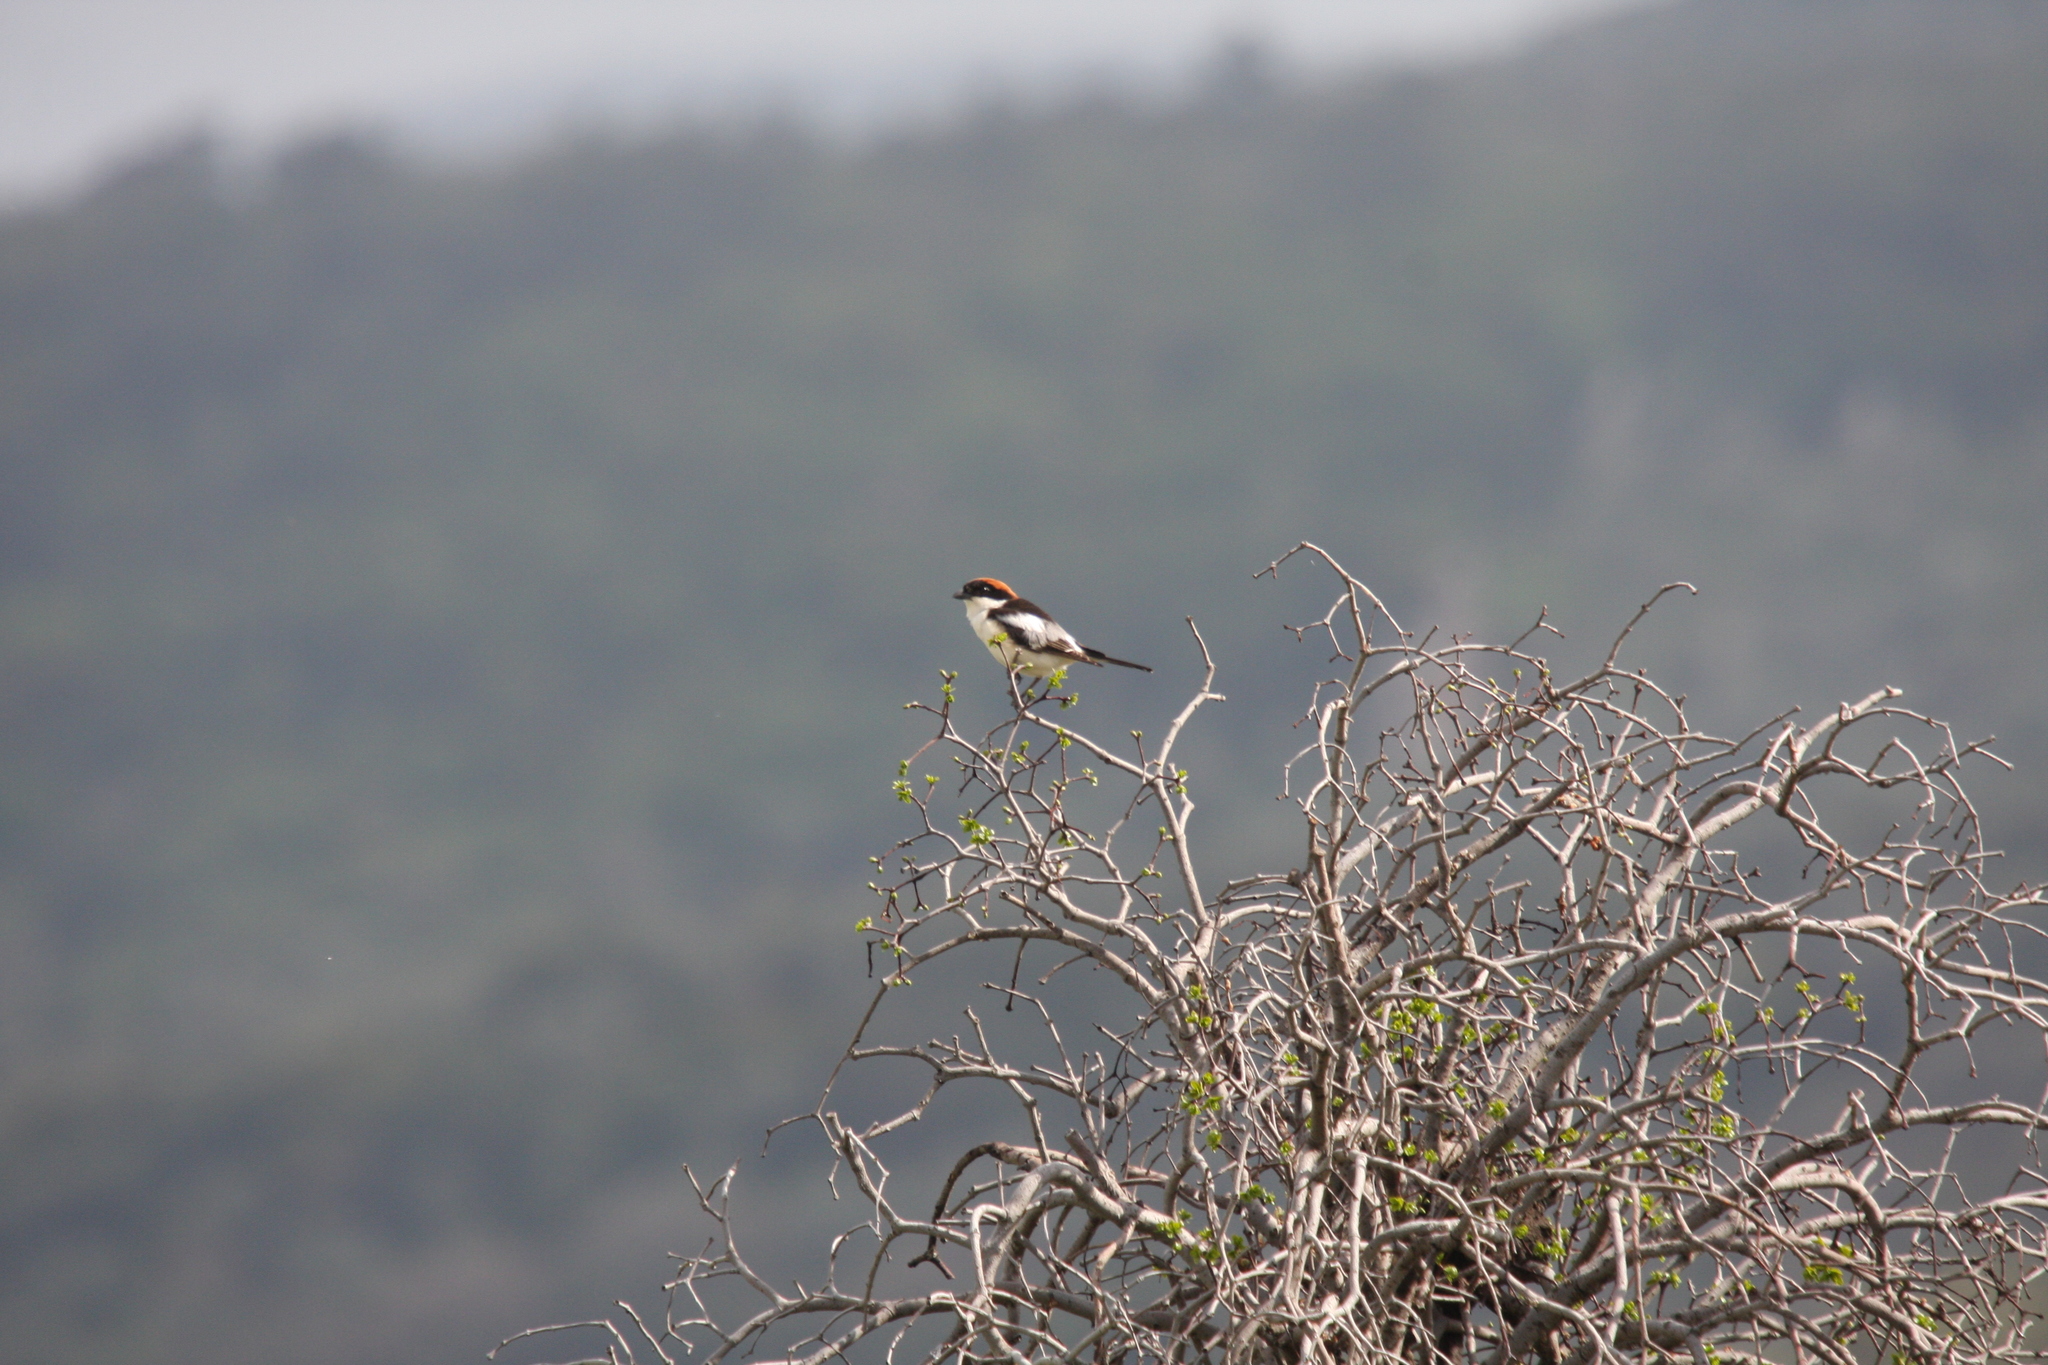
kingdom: Animalia
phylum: Chordata
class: Aves
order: Passeriformes
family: Laniidae
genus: Lanius
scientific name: Lanius senator
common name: Woodchat shrike
